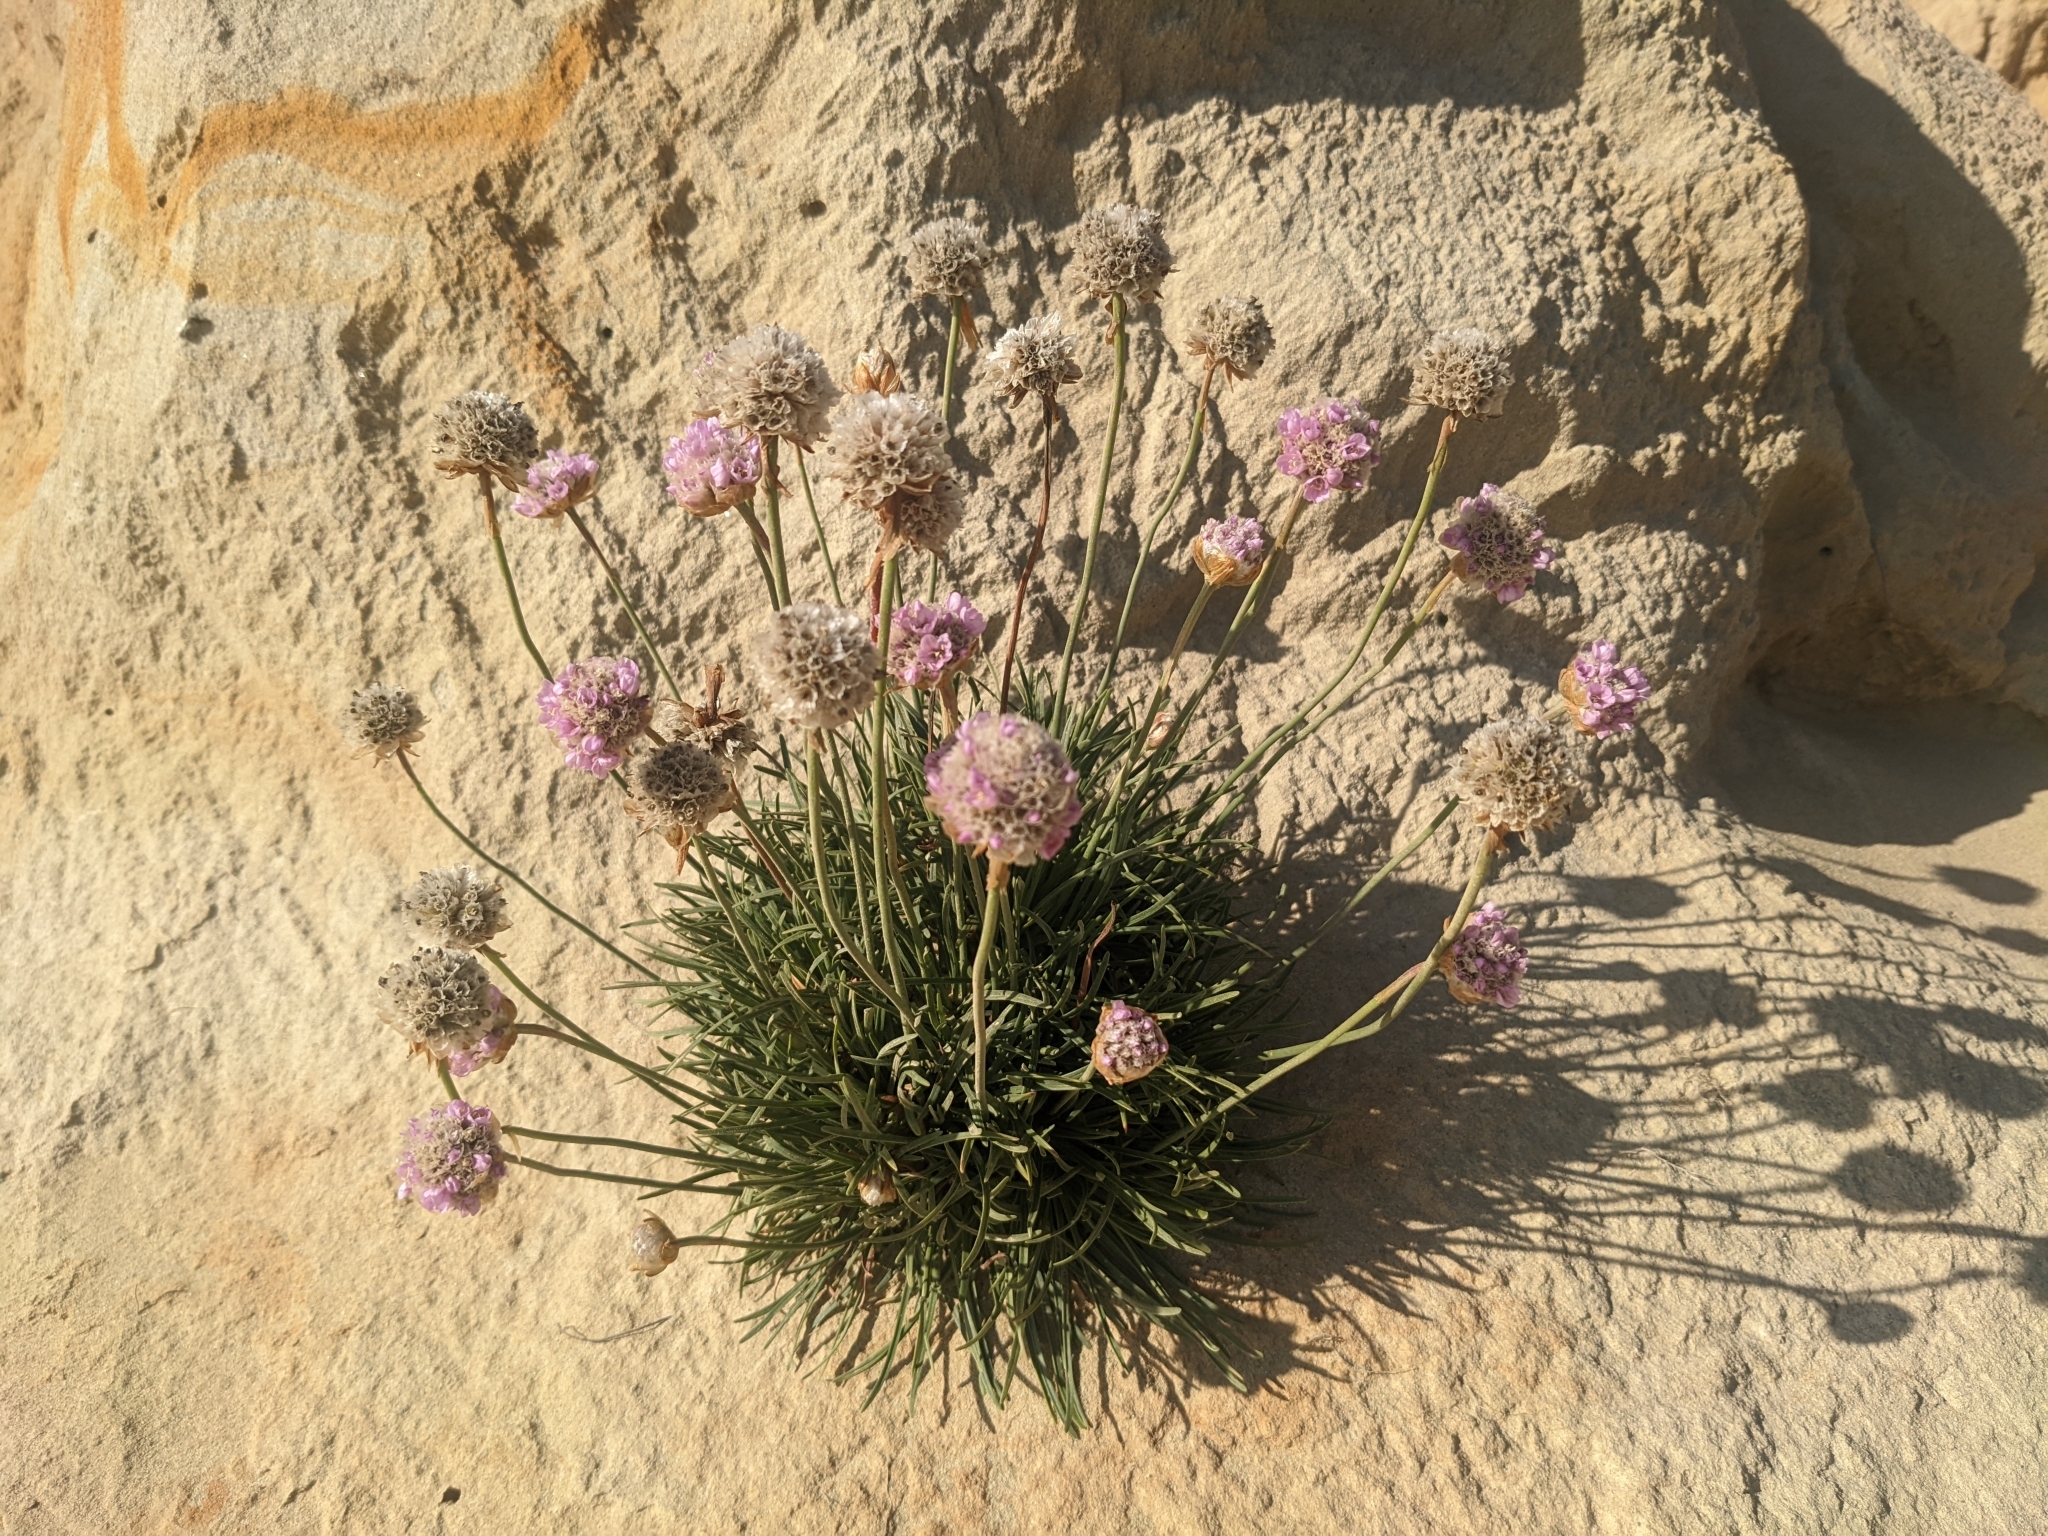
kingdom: Plantae
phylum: Tracheophyta
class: Magnoliopsida
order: Caryophyllales
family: Plumbaginaceae
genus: Armeria
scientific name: Armeria maritima
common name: Thrift
